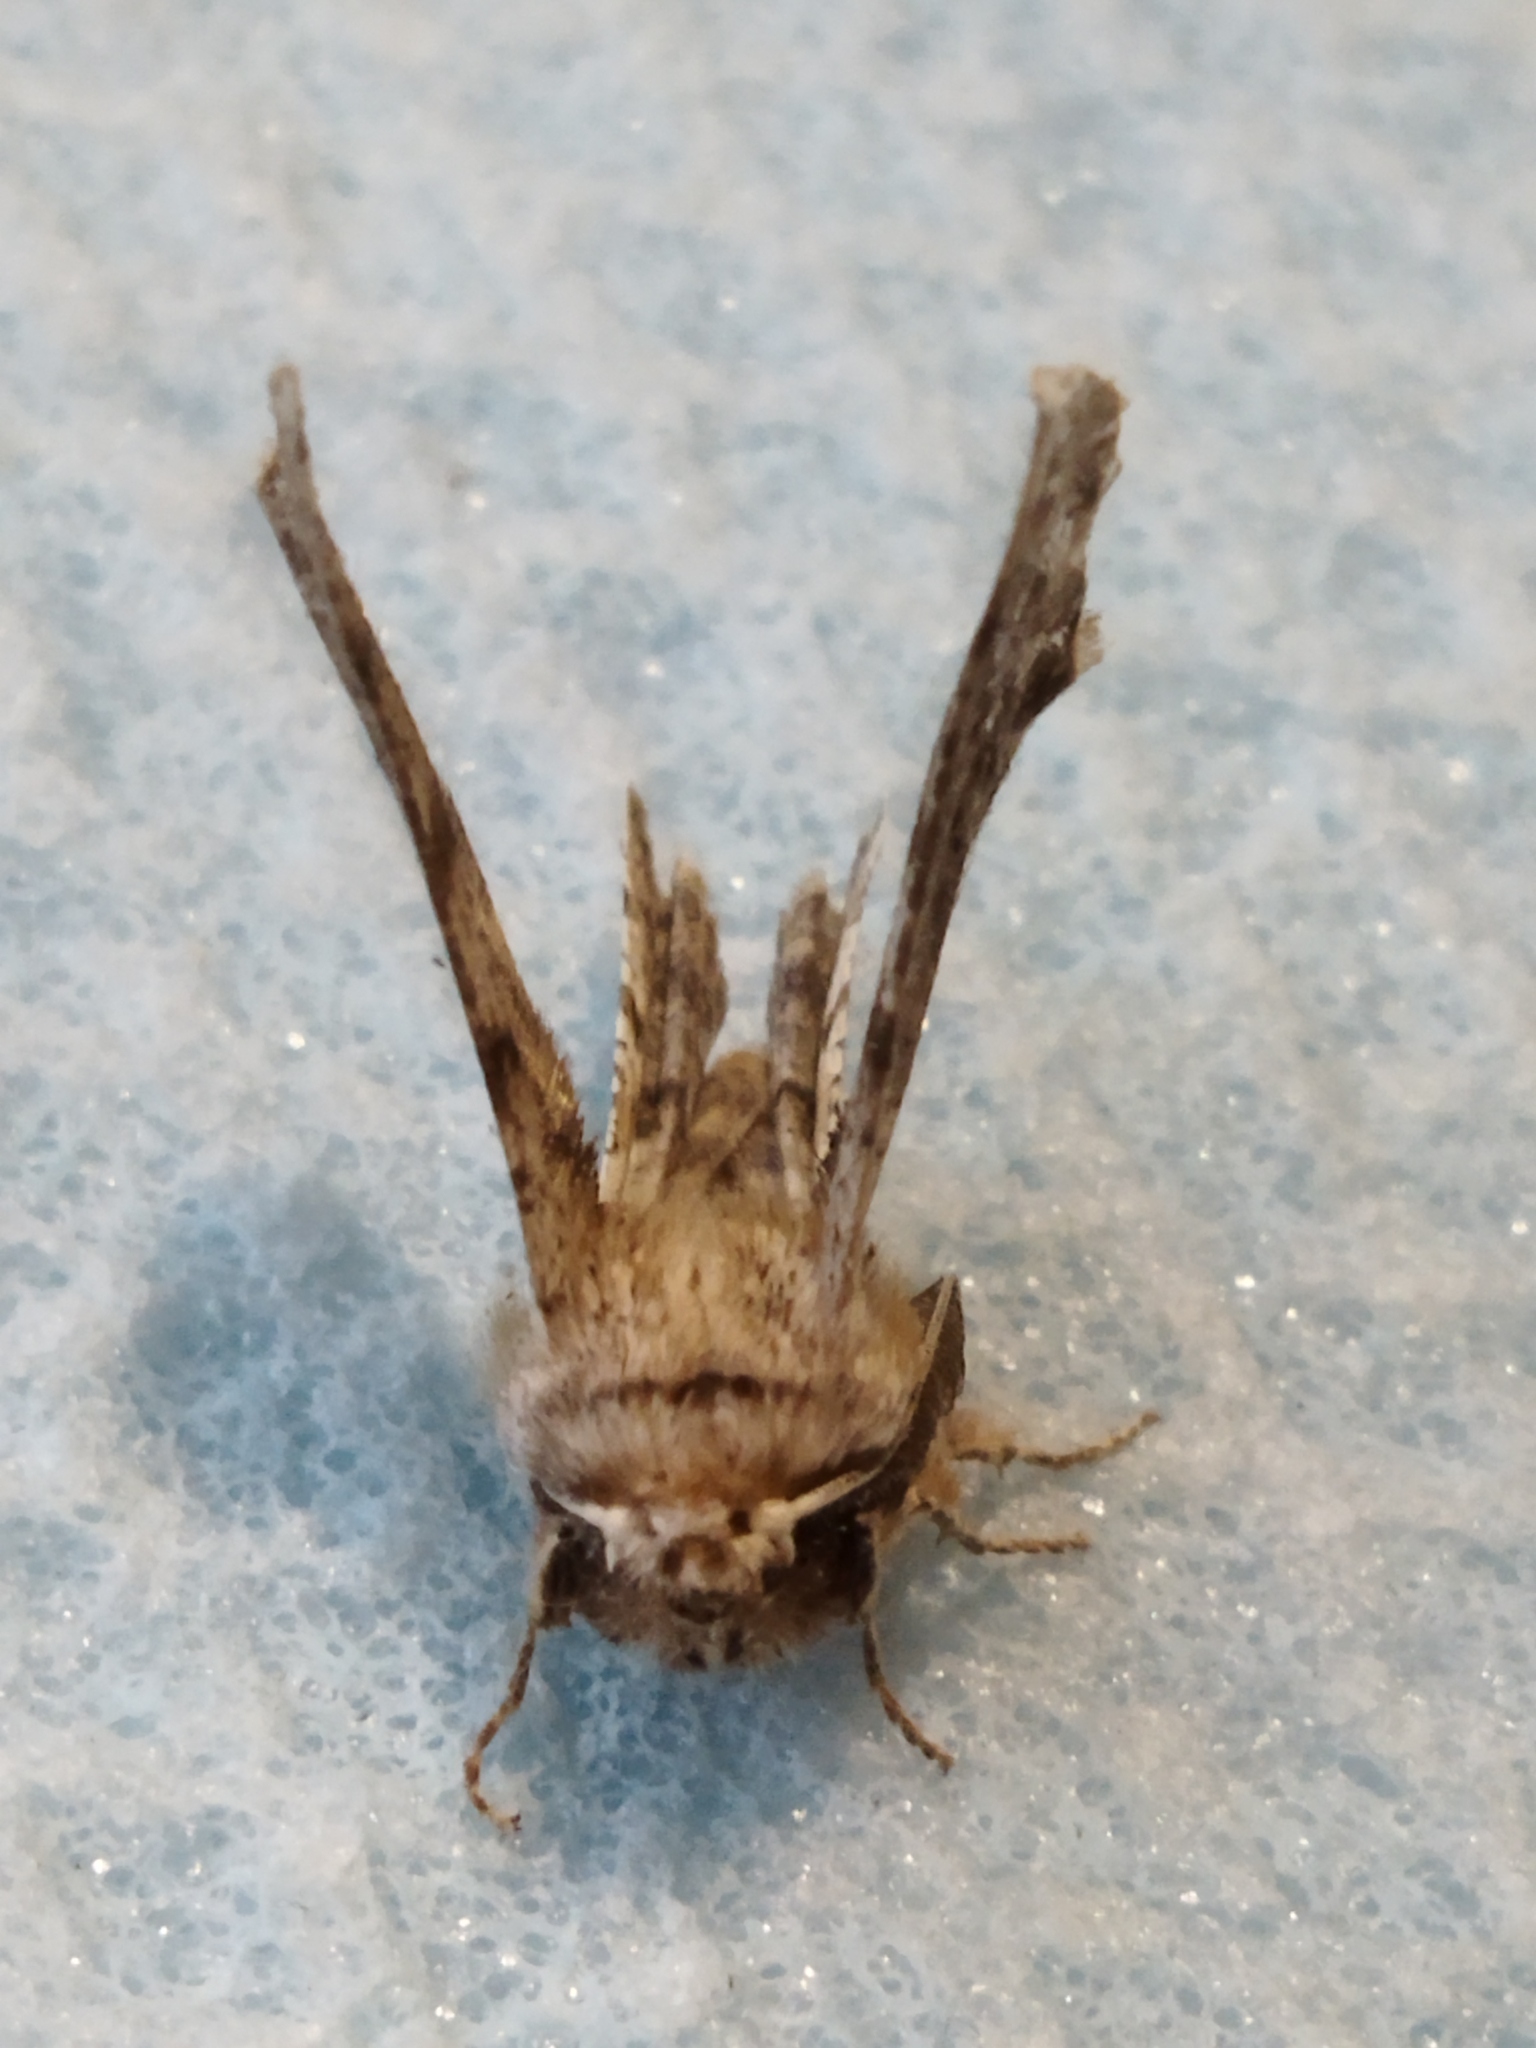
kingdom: Animalia
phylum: Arthropoda
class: Insecta
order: Lepidoptera
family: Geometridae
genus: Apochima
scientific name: Apochima flabellaria
